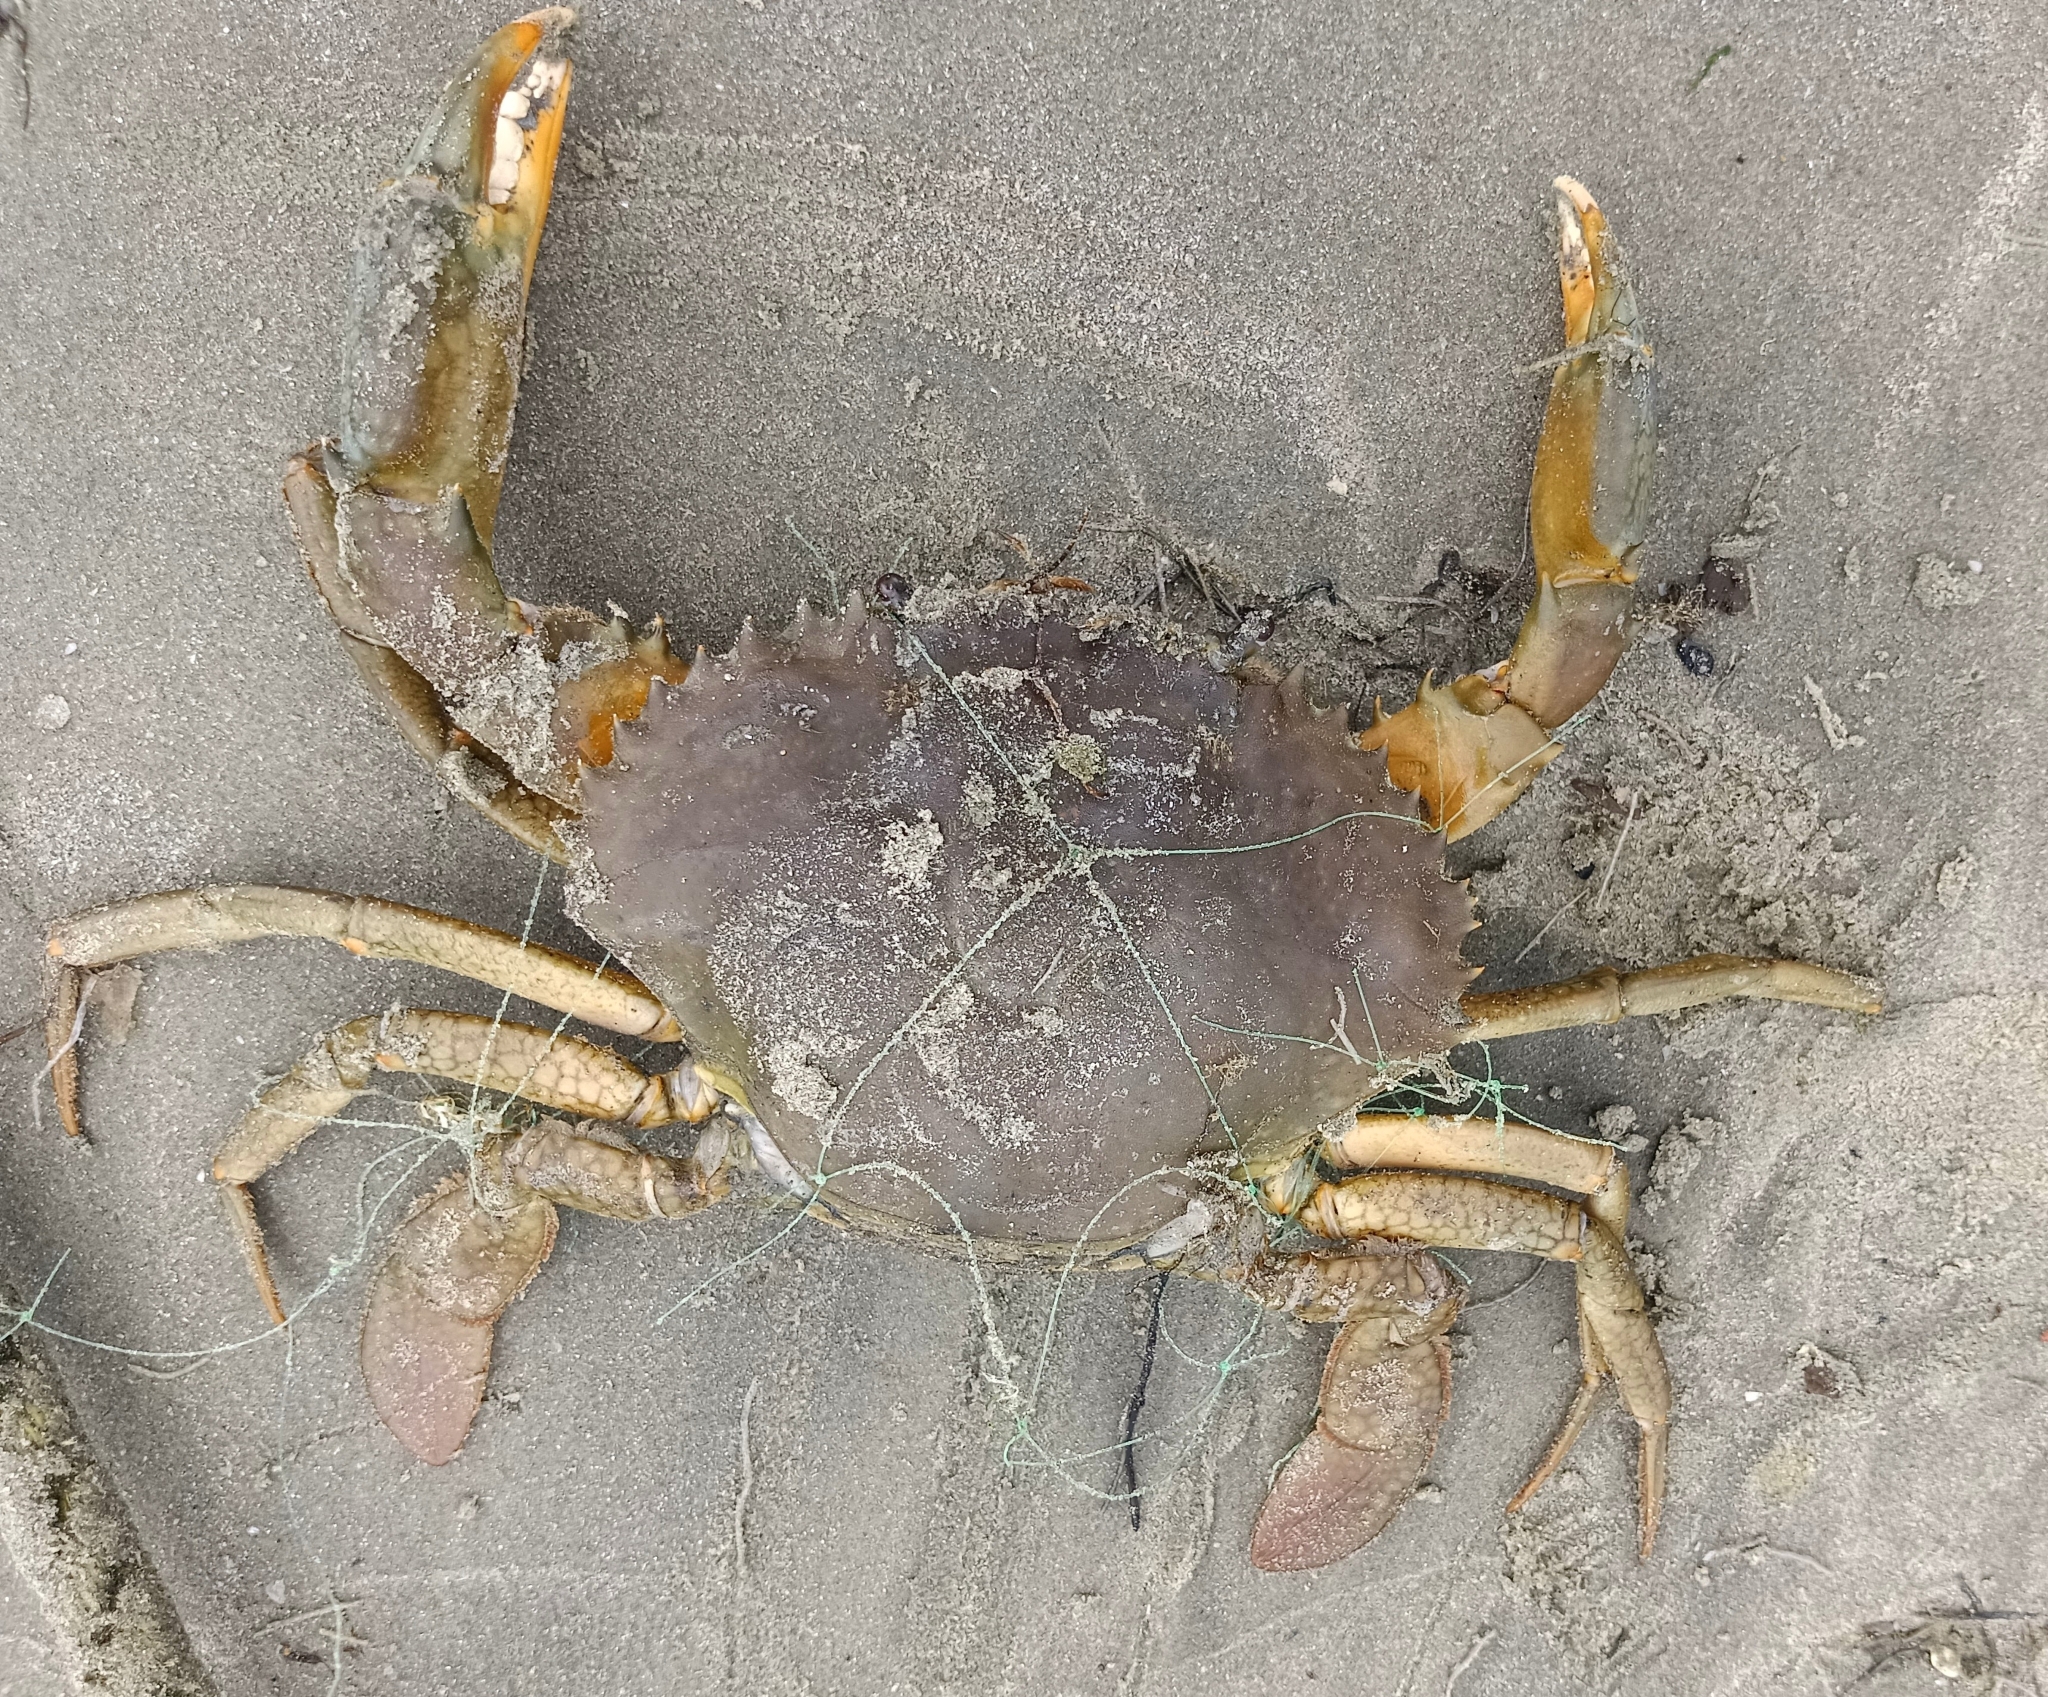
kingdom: Animalia
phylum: Arthropoda
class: Malacostraca
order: Decapoda
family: Portunidae
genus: Scylla
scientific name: Scylla serrata
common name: Giant mud crab
